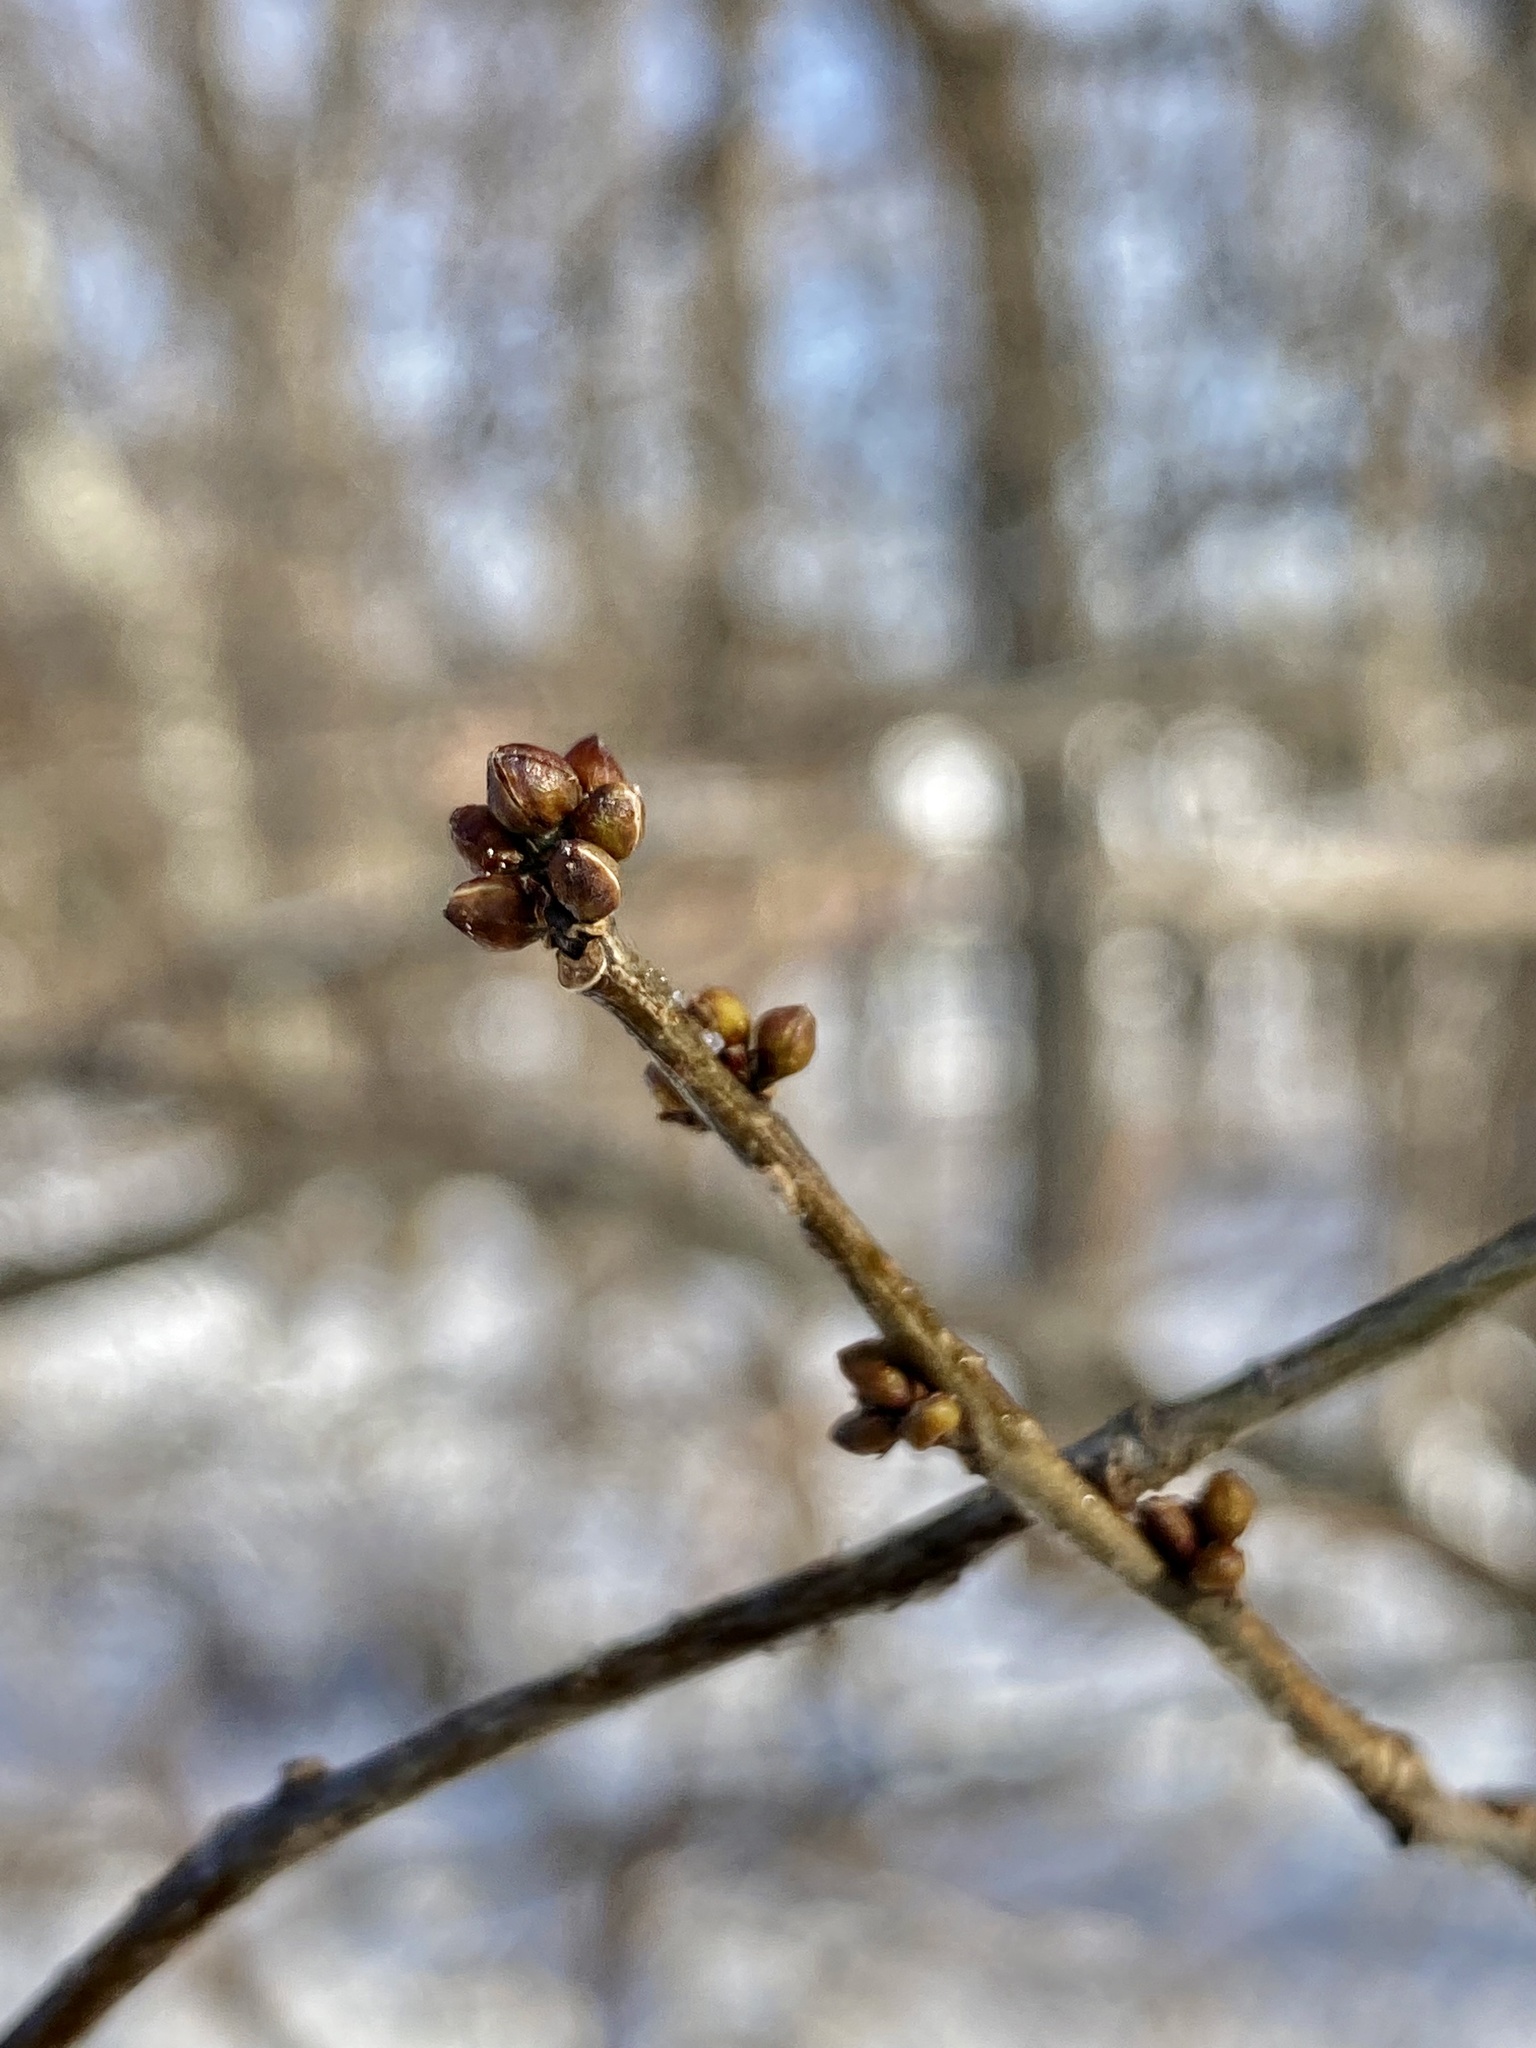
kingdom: Plantae
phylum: Tracheophyta
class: Magnoliopsida
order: Laurales
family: Lauraceae
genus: Lindera
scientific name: Lindera benzoin
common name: Spicebush
